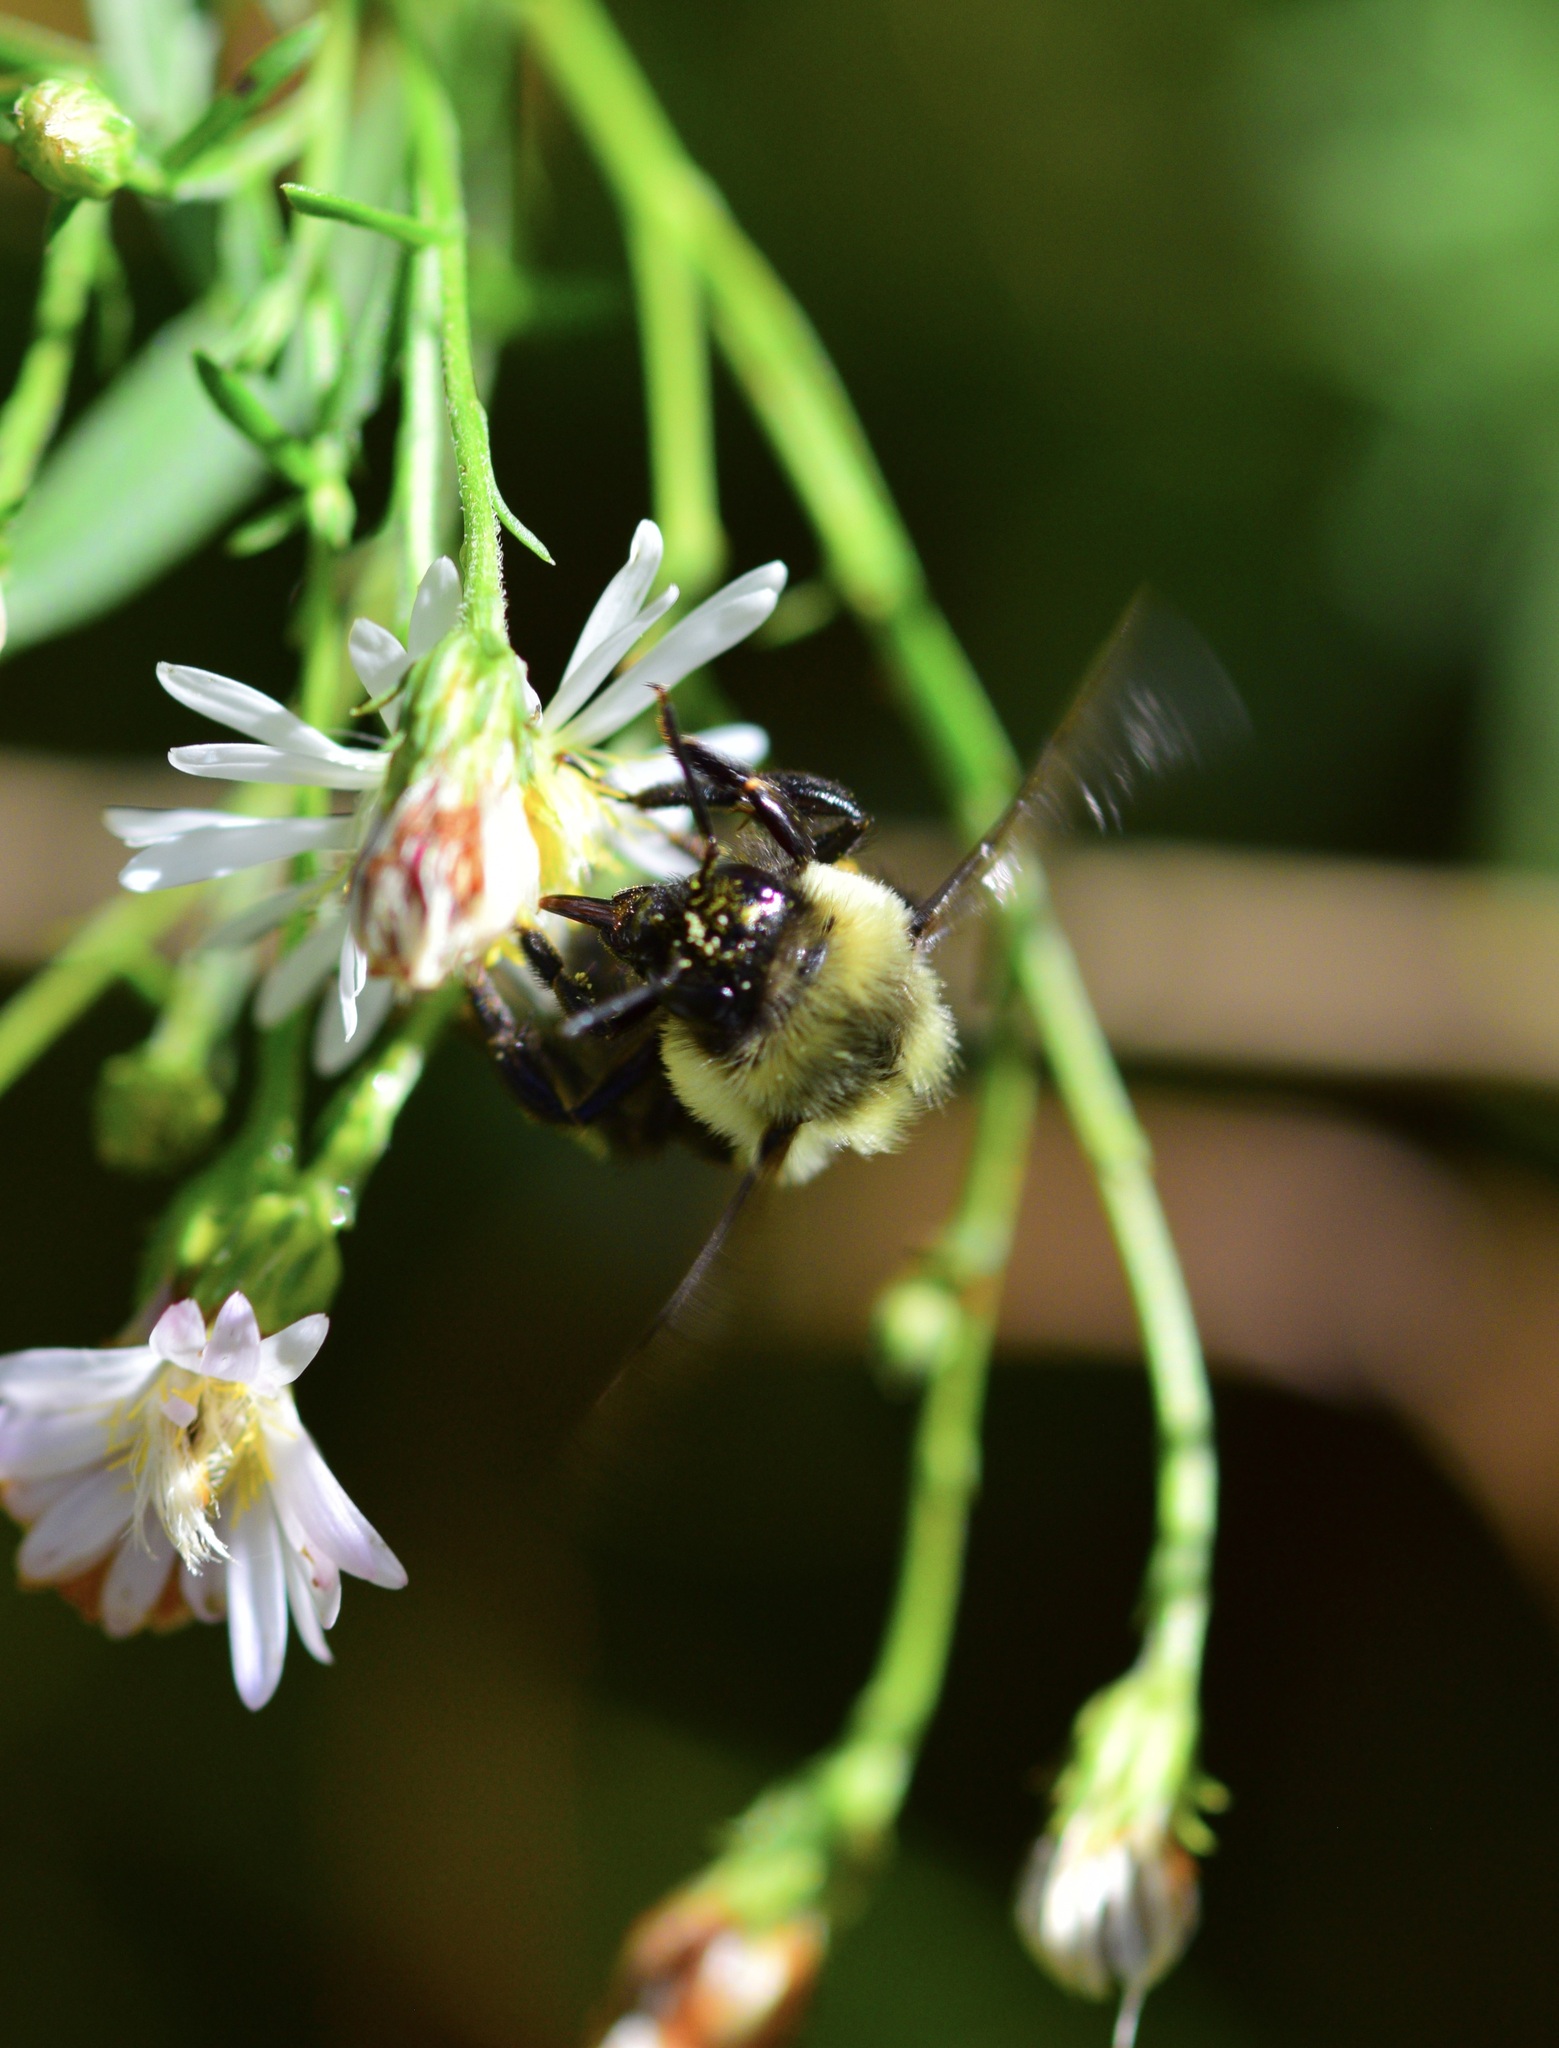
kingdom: Animalia
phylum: Arthropoda
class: Insecta
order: Hymenoptera
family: Apidae
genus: Bombus
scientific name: Bombus impatiens
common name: Common eastern bumble bee
